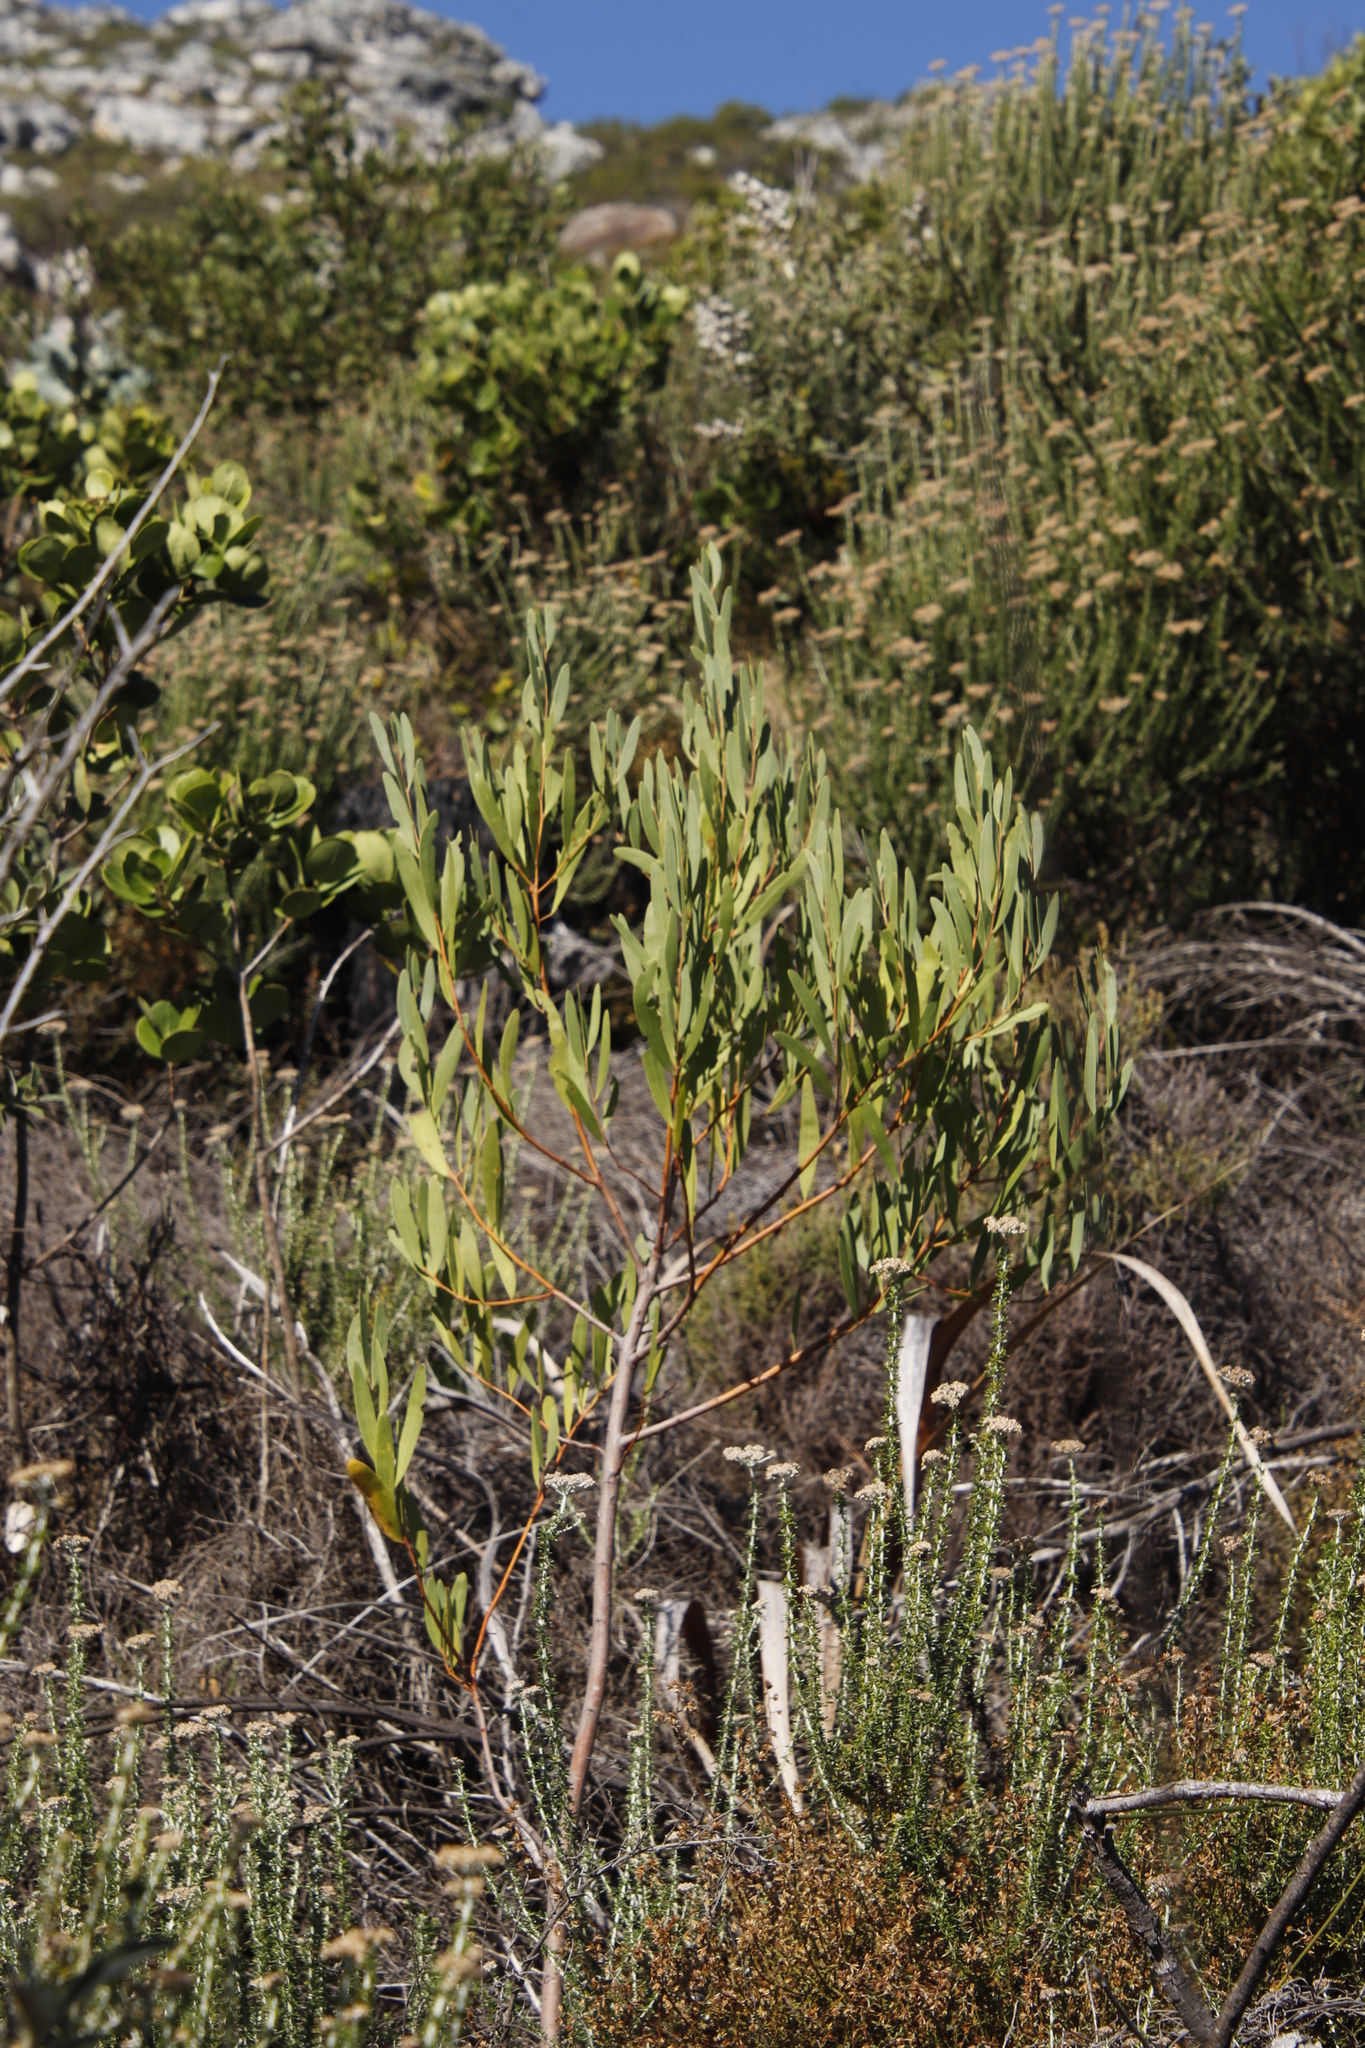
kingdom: Plantae
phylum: Tracheophyta
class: Magnoliopsida
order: Fabales
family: Fabaceae
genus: Acacia
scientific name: Acacia cyclops
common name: Coastal wattle
